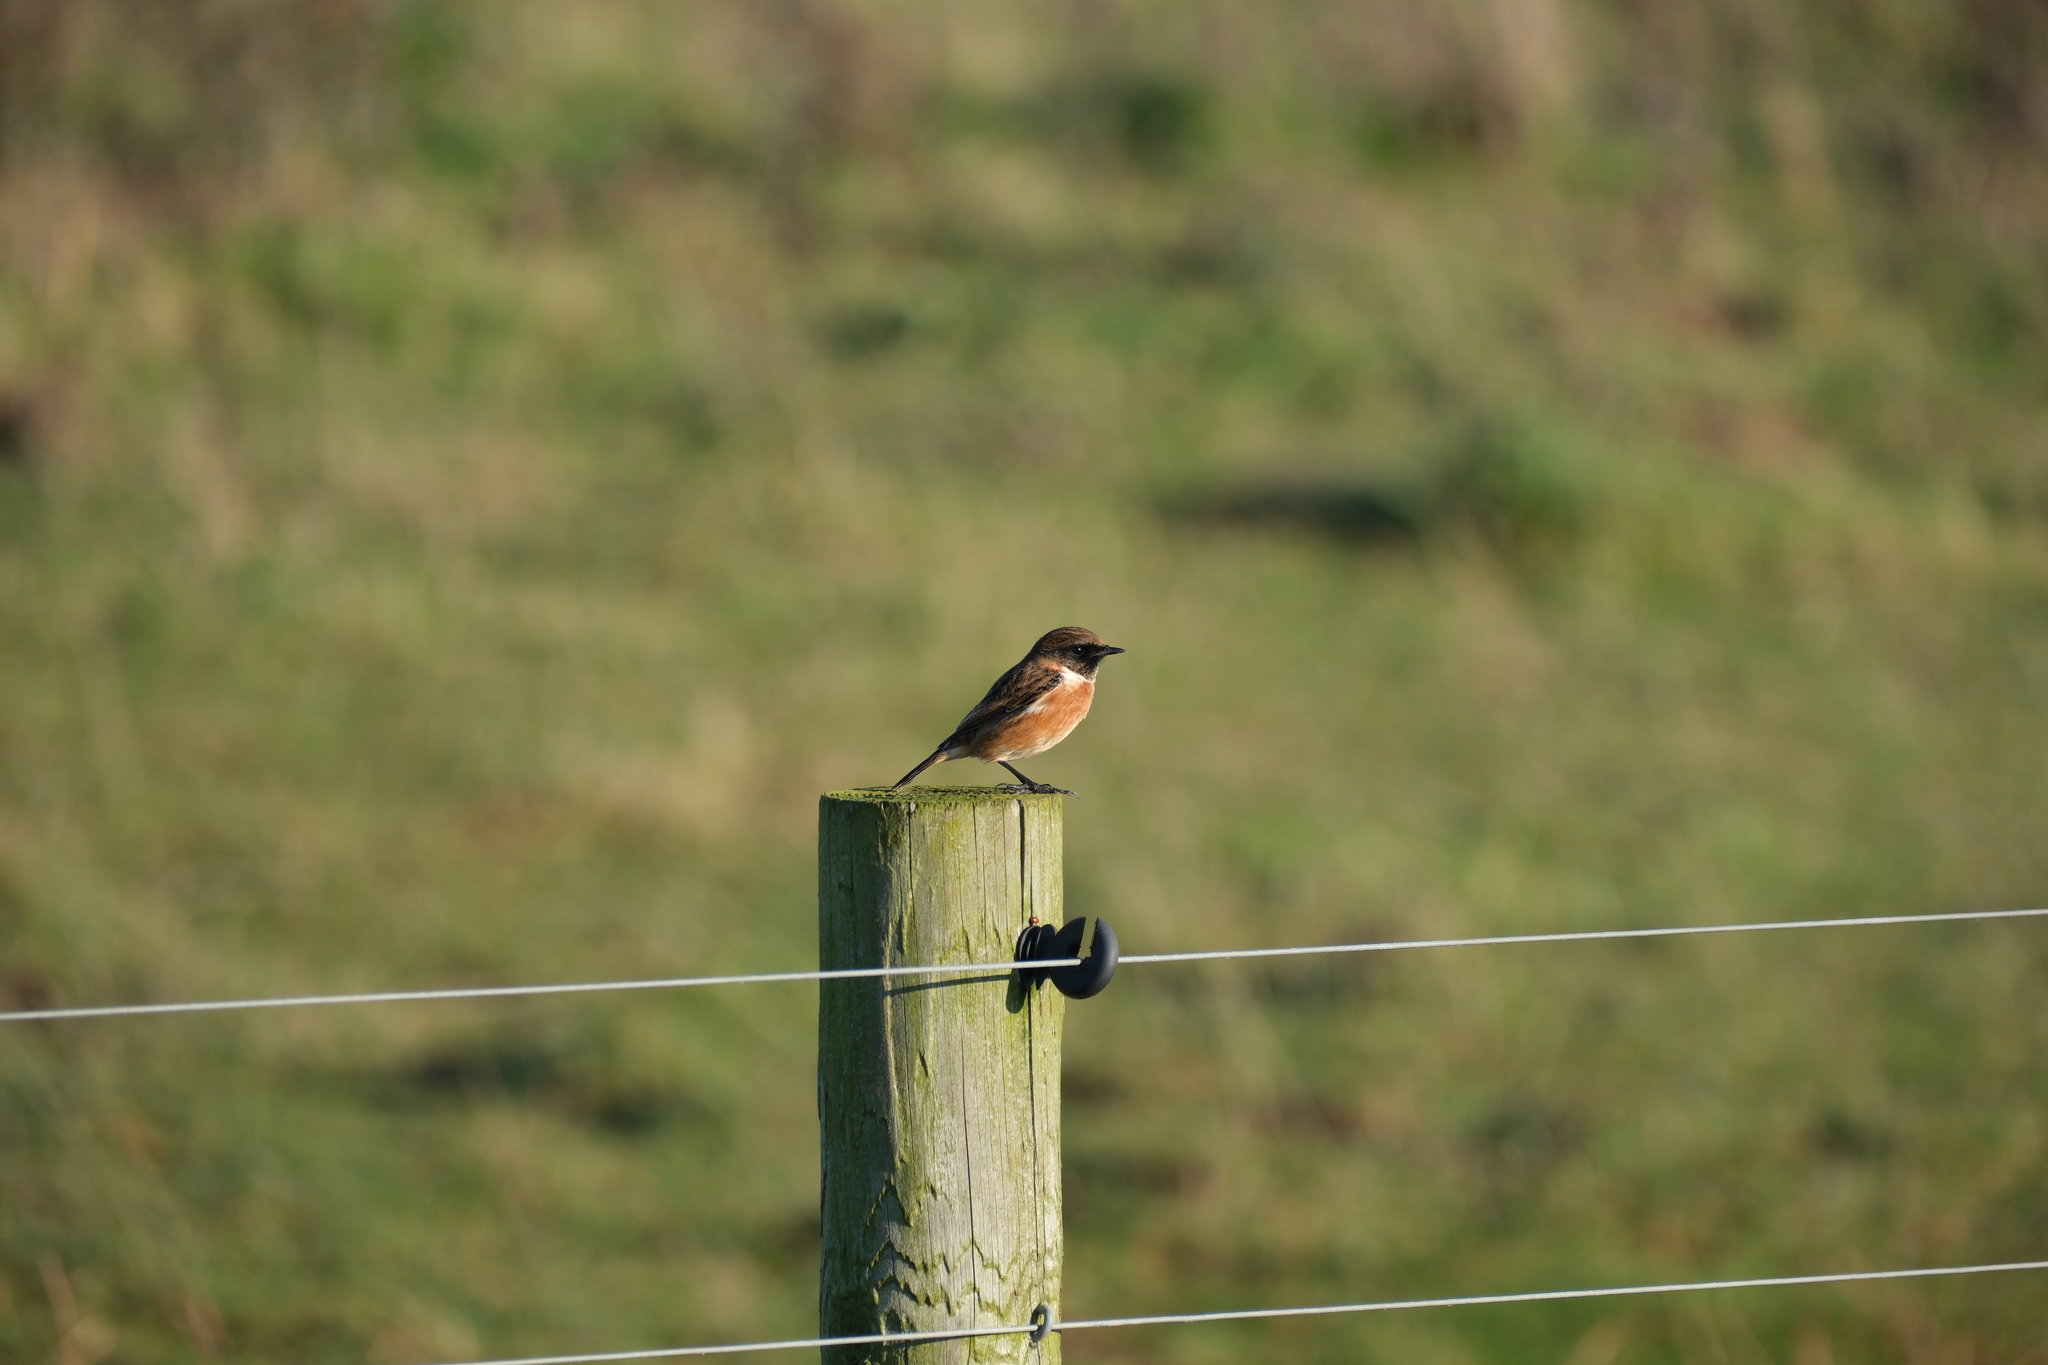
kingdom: Animalia
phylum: Chordata
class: Aves
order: Passeriformes
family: Muscicapidae
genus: Saxicola
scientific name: Saxicola rubicola
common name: European stonechat
